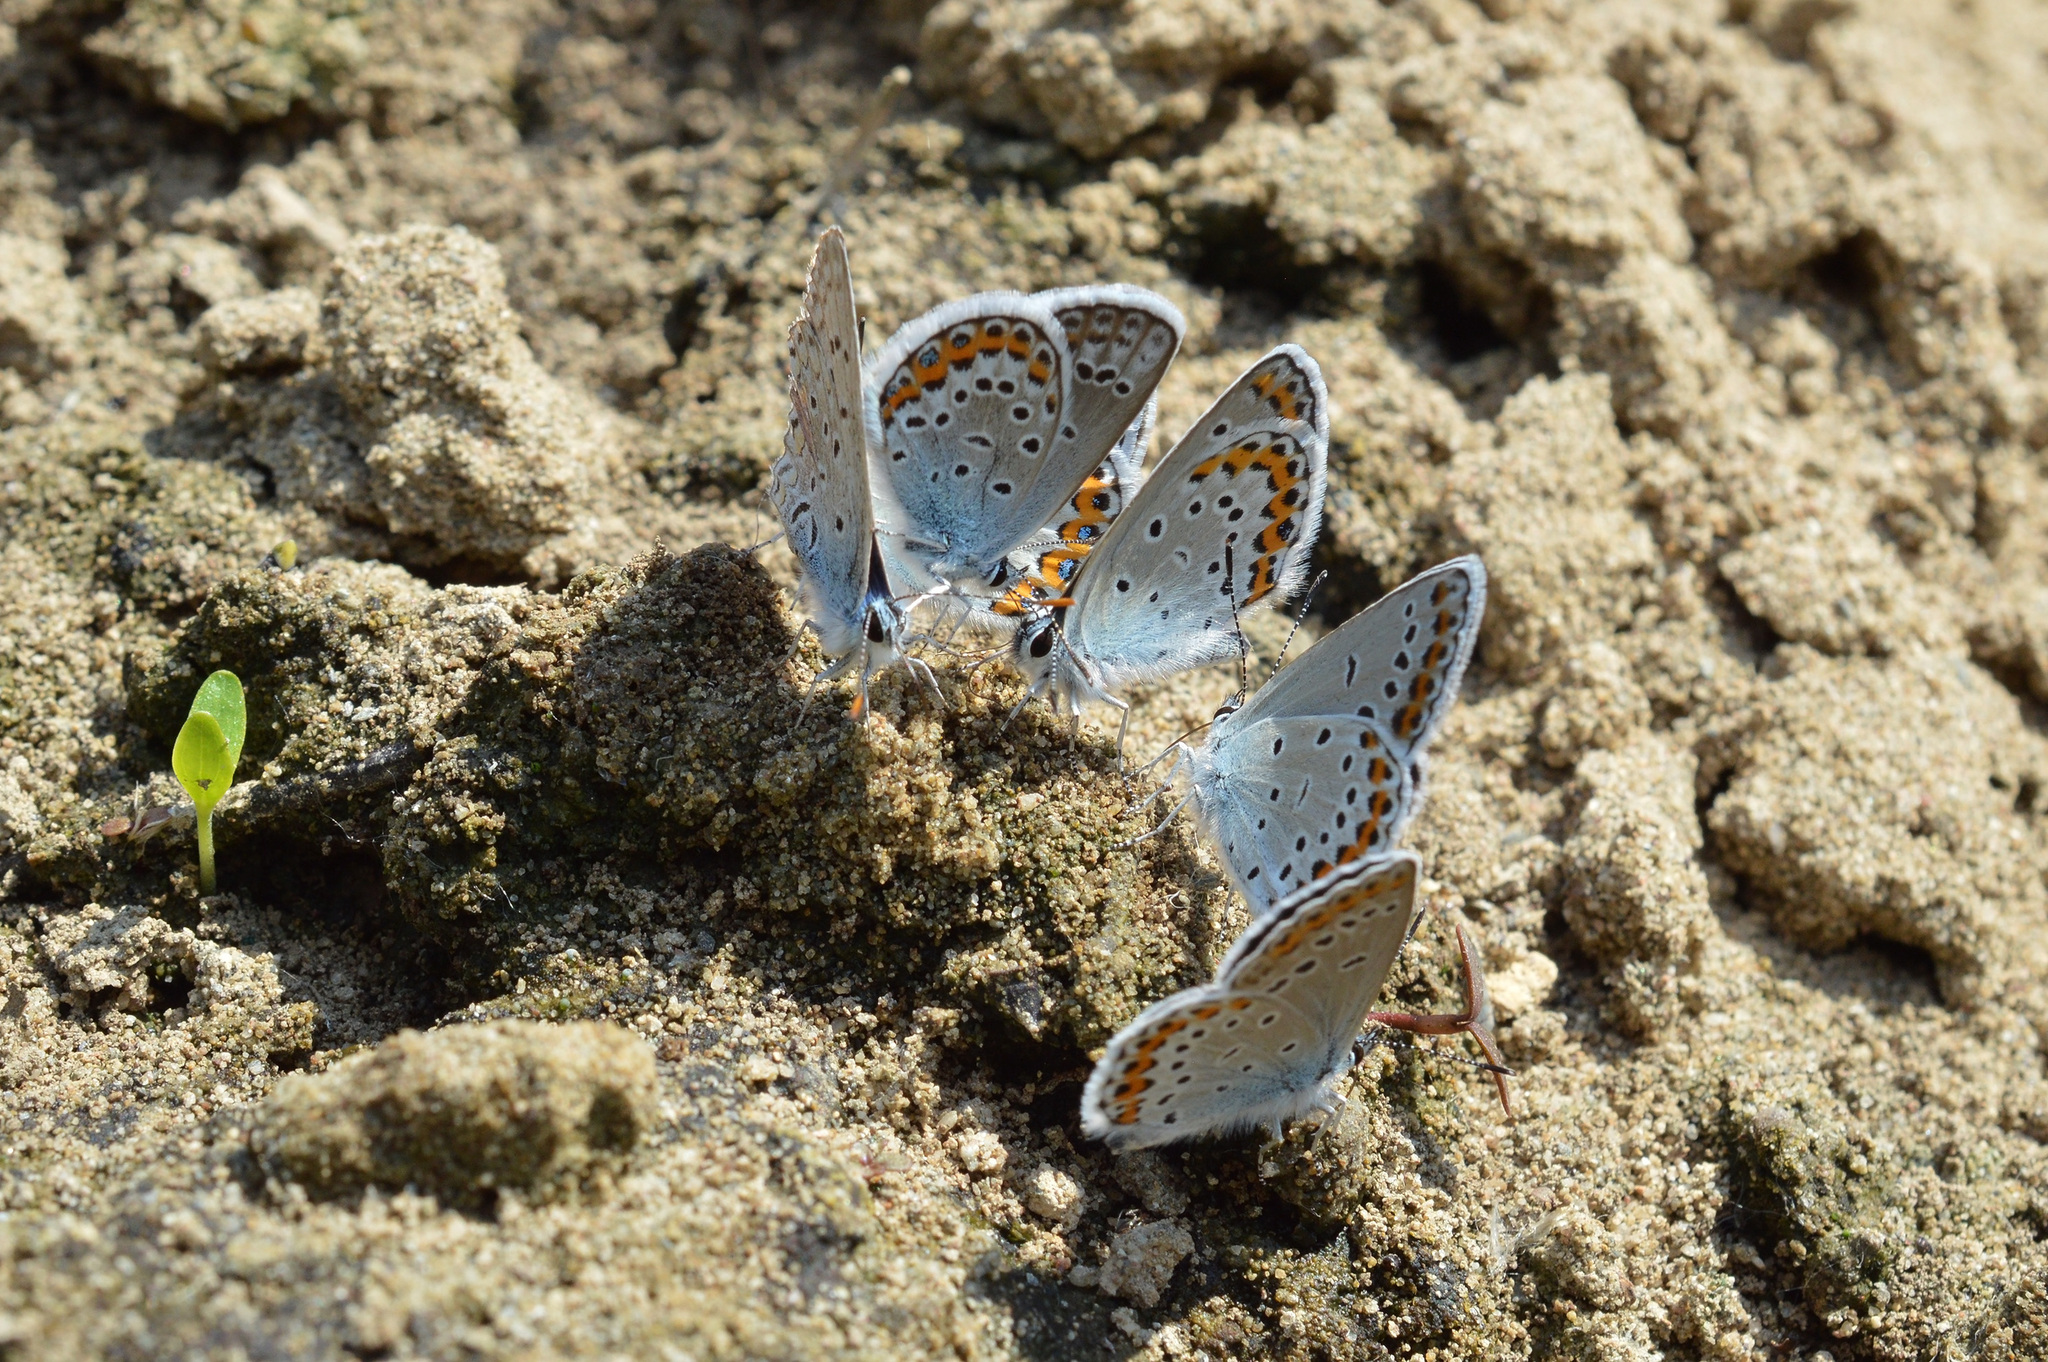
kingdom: Animalia
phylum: Arthropoda
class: Insecta
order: Lepidoptera
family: Lycaenidae
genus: Plebejus
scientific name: Plebejus argyrognomon
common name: Reverdin's blue
